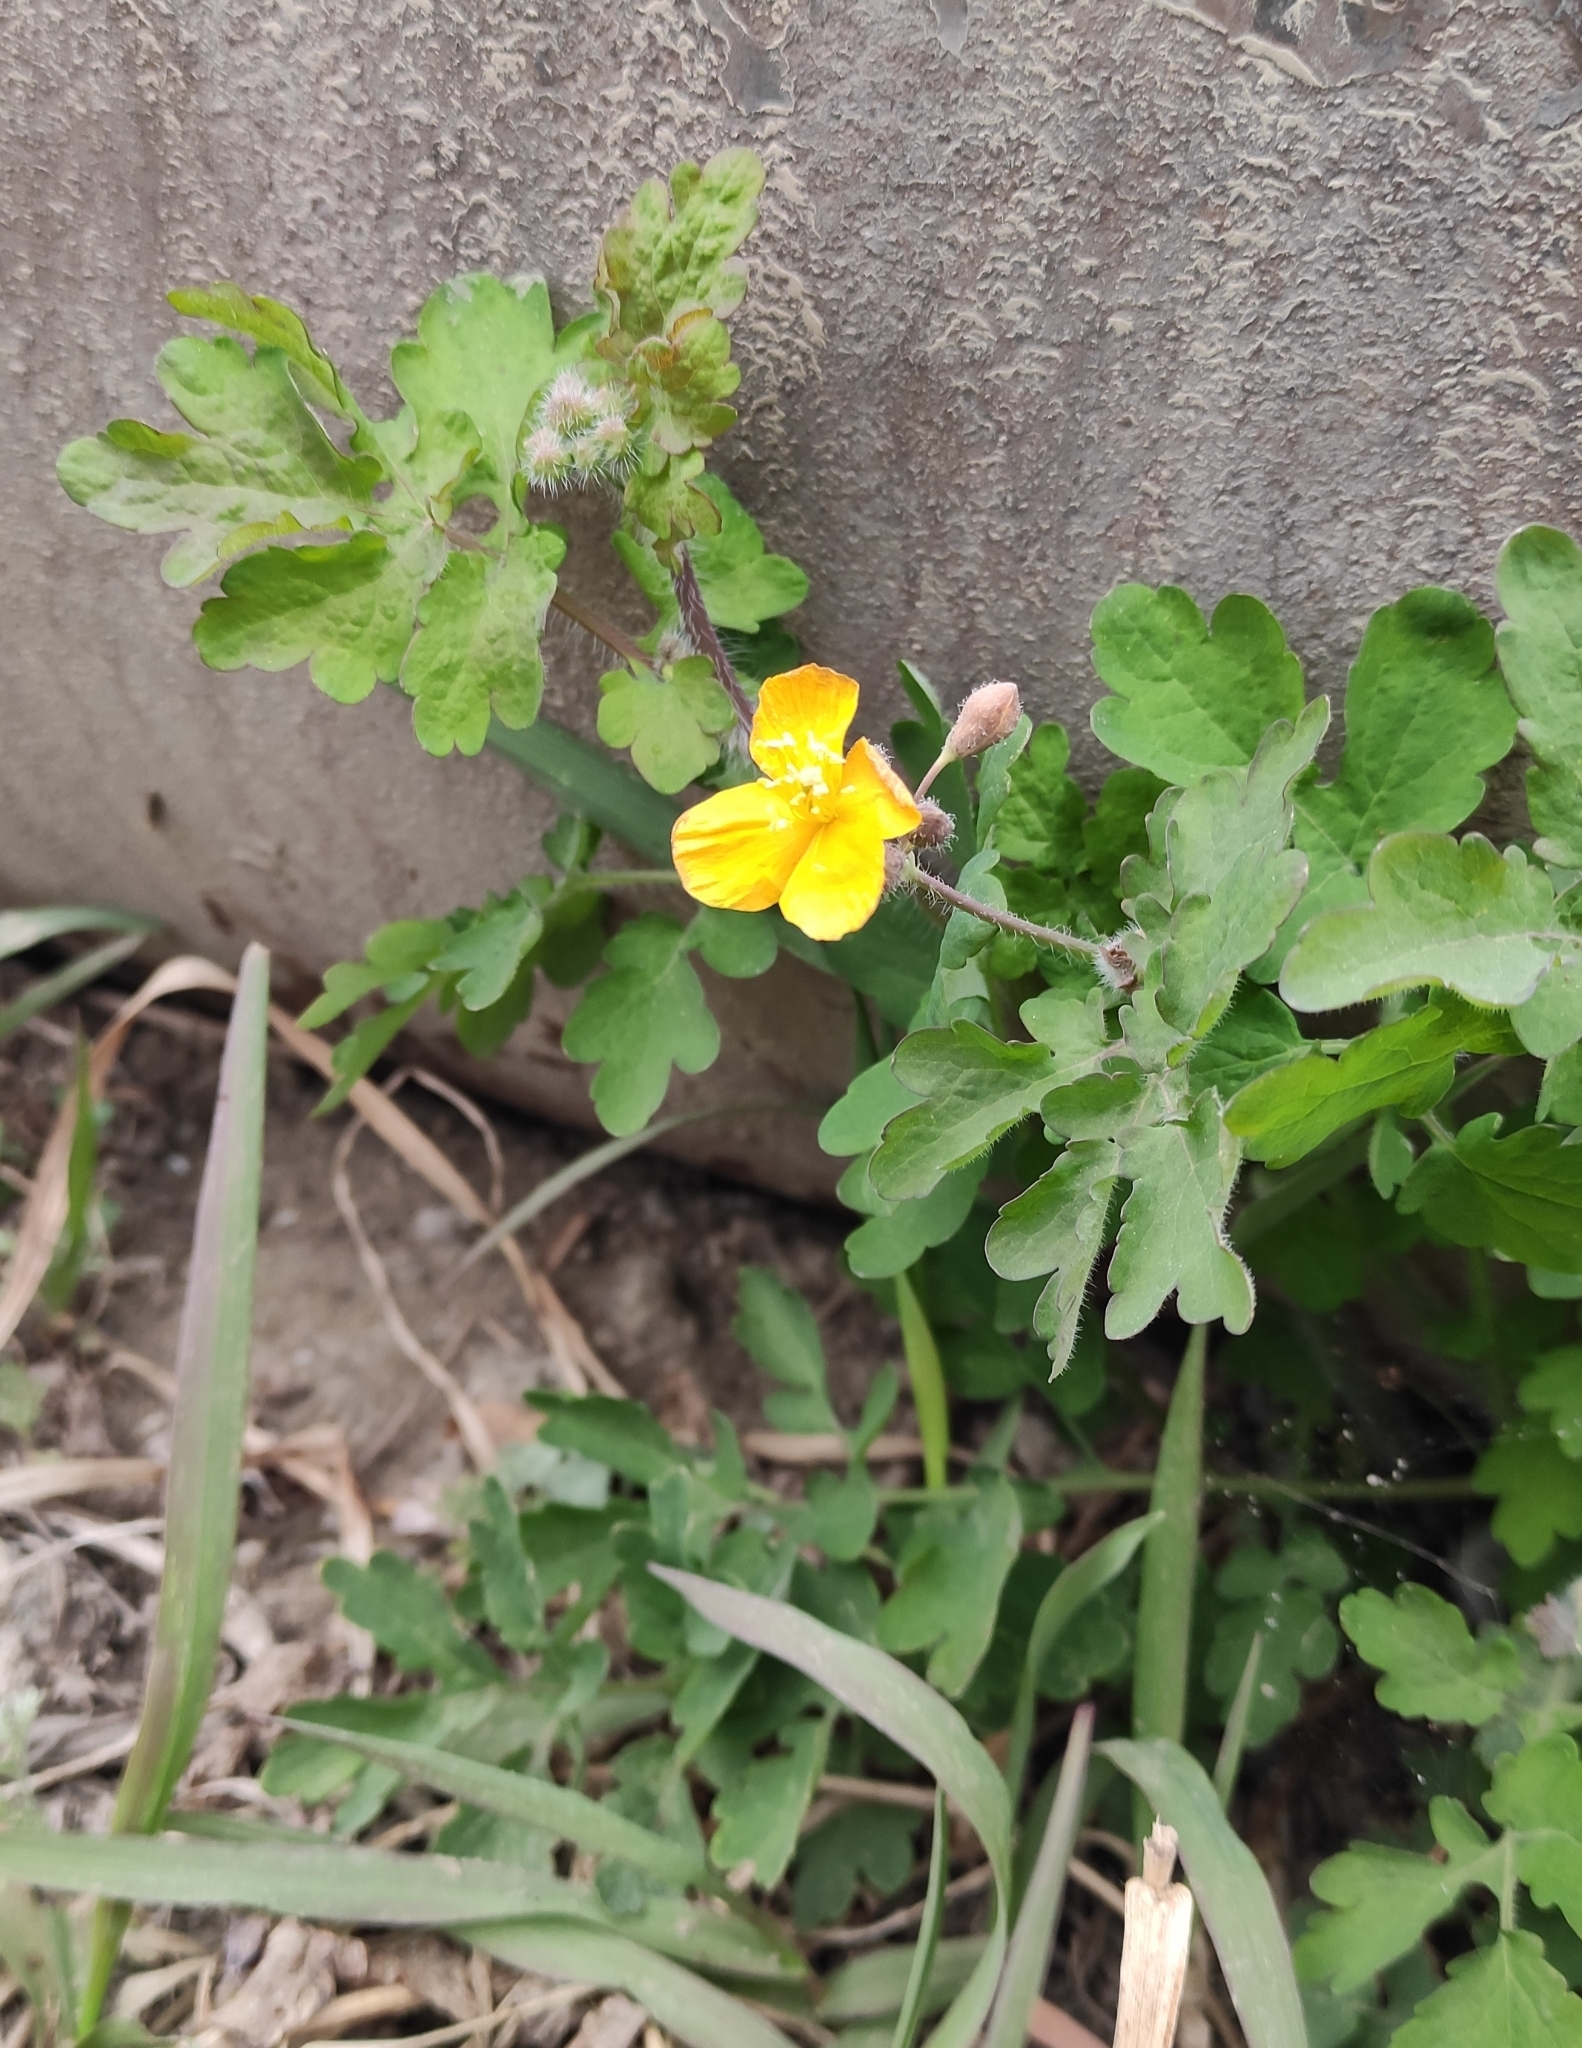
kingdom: Plantae
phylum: Tracheophyta
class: Magnoliopsida
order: Ranunculales
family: Papaveraceae
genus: Chelidonium
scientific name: Chelidonium majus
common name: Greater celandine
